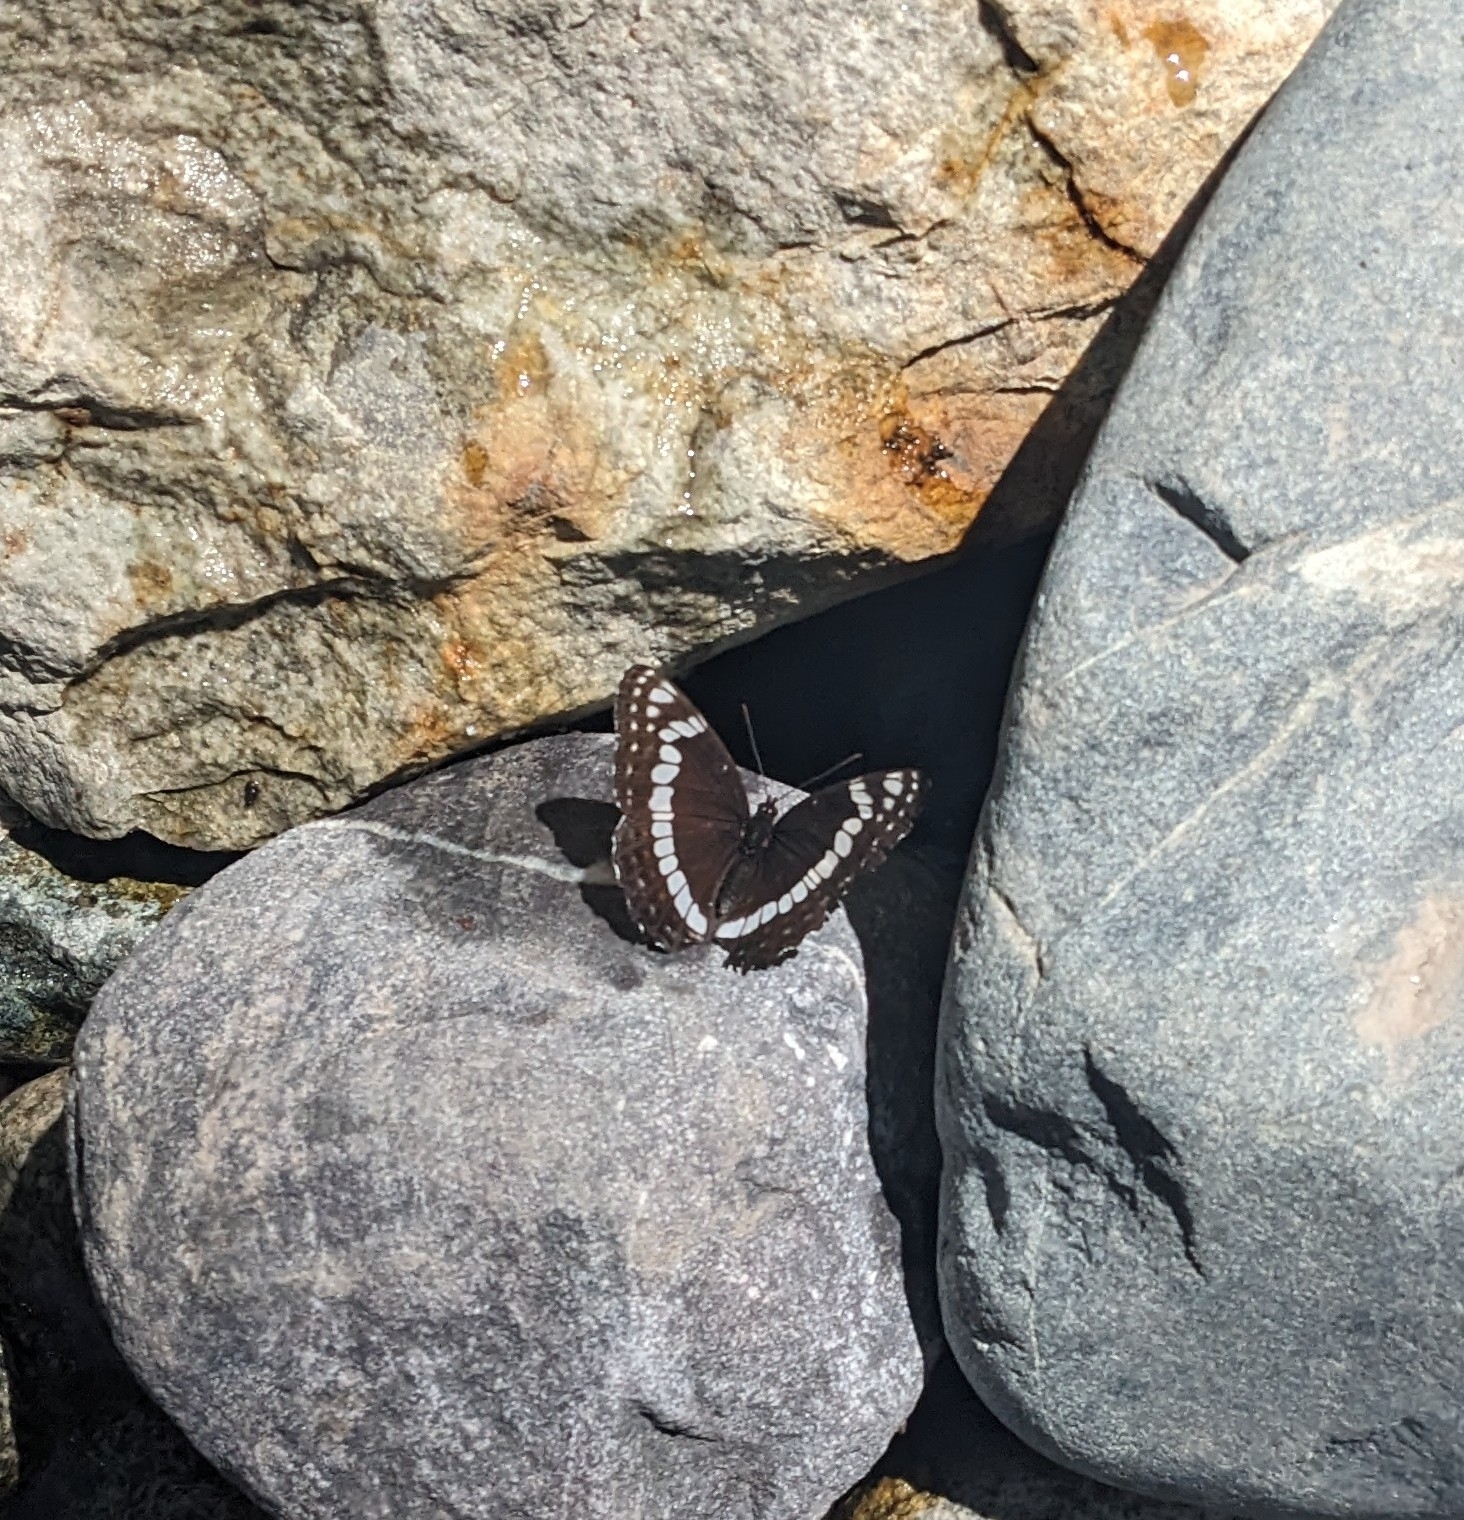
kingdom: Animalia
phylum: Arthropoda
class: Insecta
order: Lepidoptera
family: Nymphalidae
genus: Limenitis
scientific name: Limenitis weidemeyerii
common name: Weidemeyer's admiral
